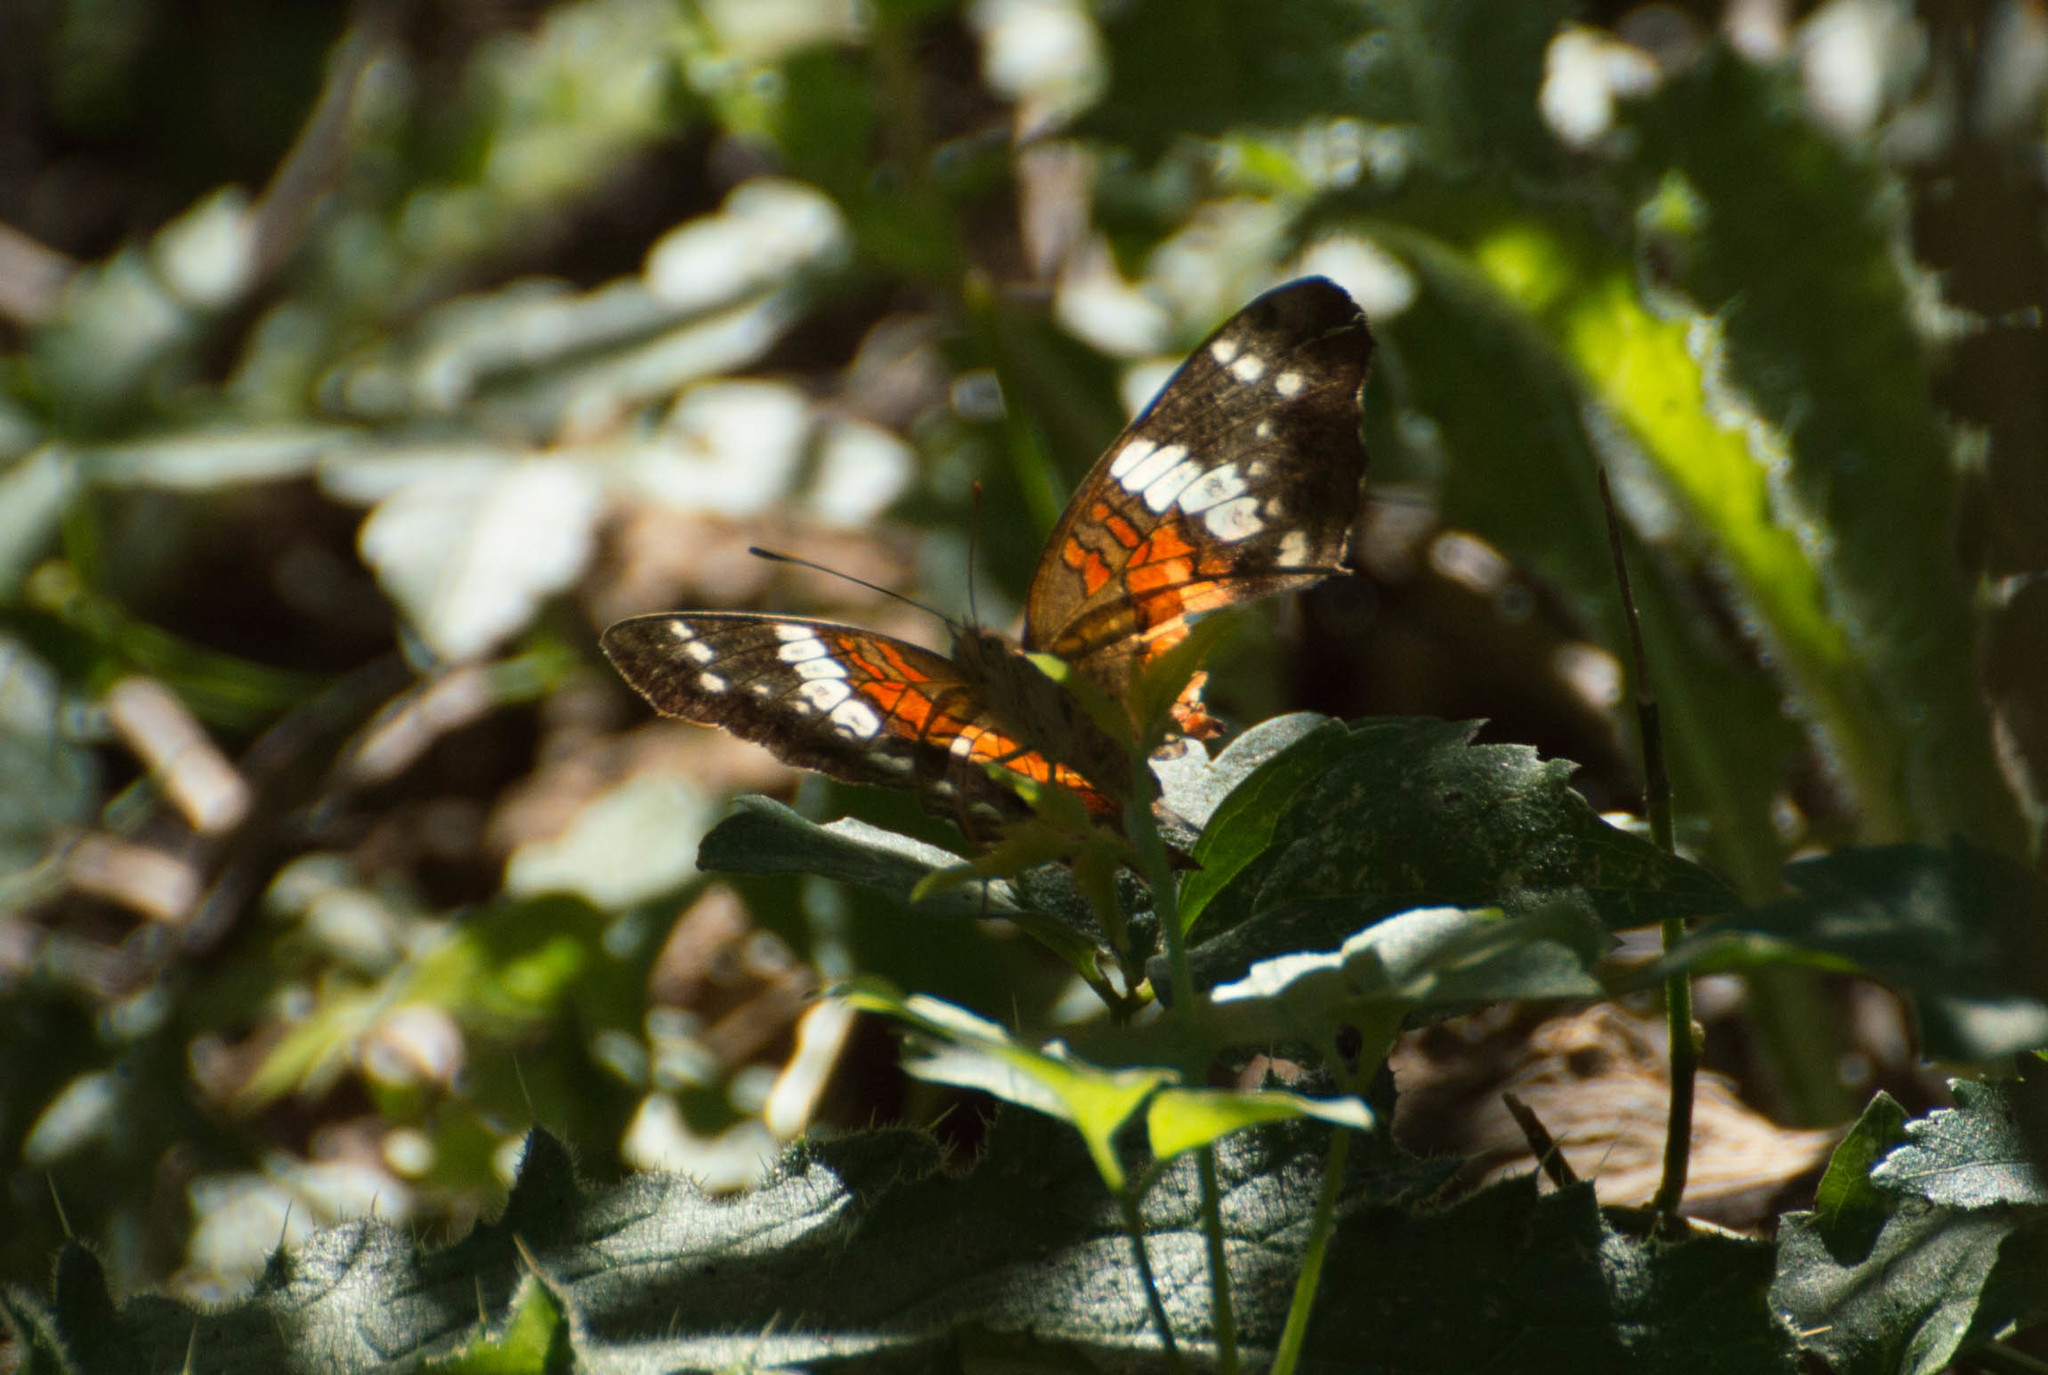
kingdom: Animalia
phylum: Arthropoda
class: Insecta
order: Lepidoptera
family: Nymphalidae
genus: Anartia
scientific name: Anartia amathea
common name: Red peacock
